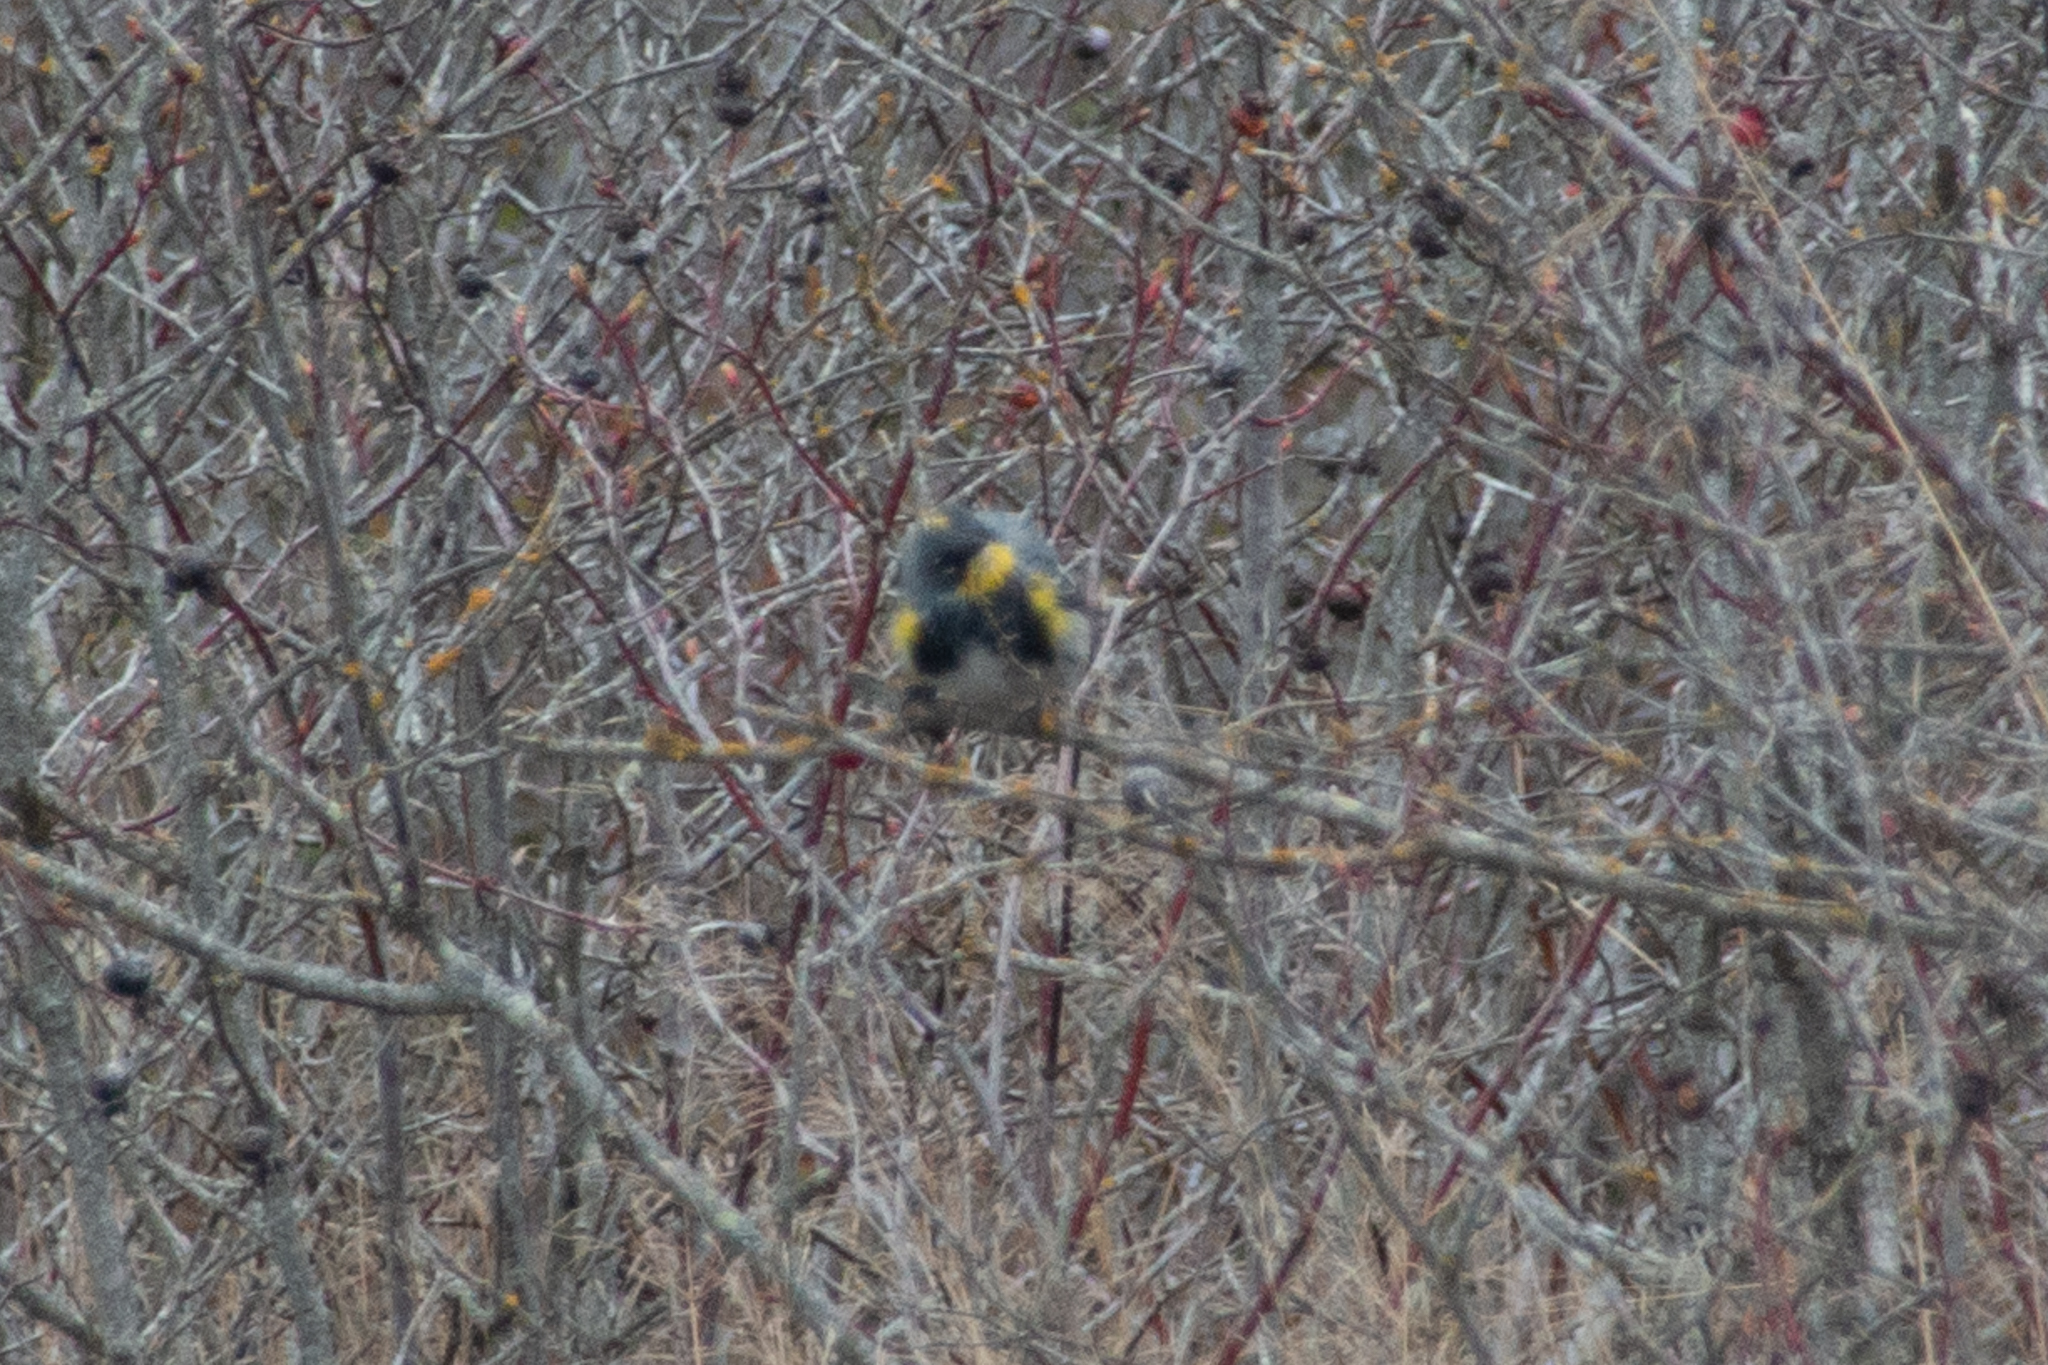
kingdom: Animalia
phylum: Chordata
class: Aves
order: Passeriformes
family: Parulidae
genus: Setophaga
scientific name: Setophaga coronata
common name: Myrtle warbler
